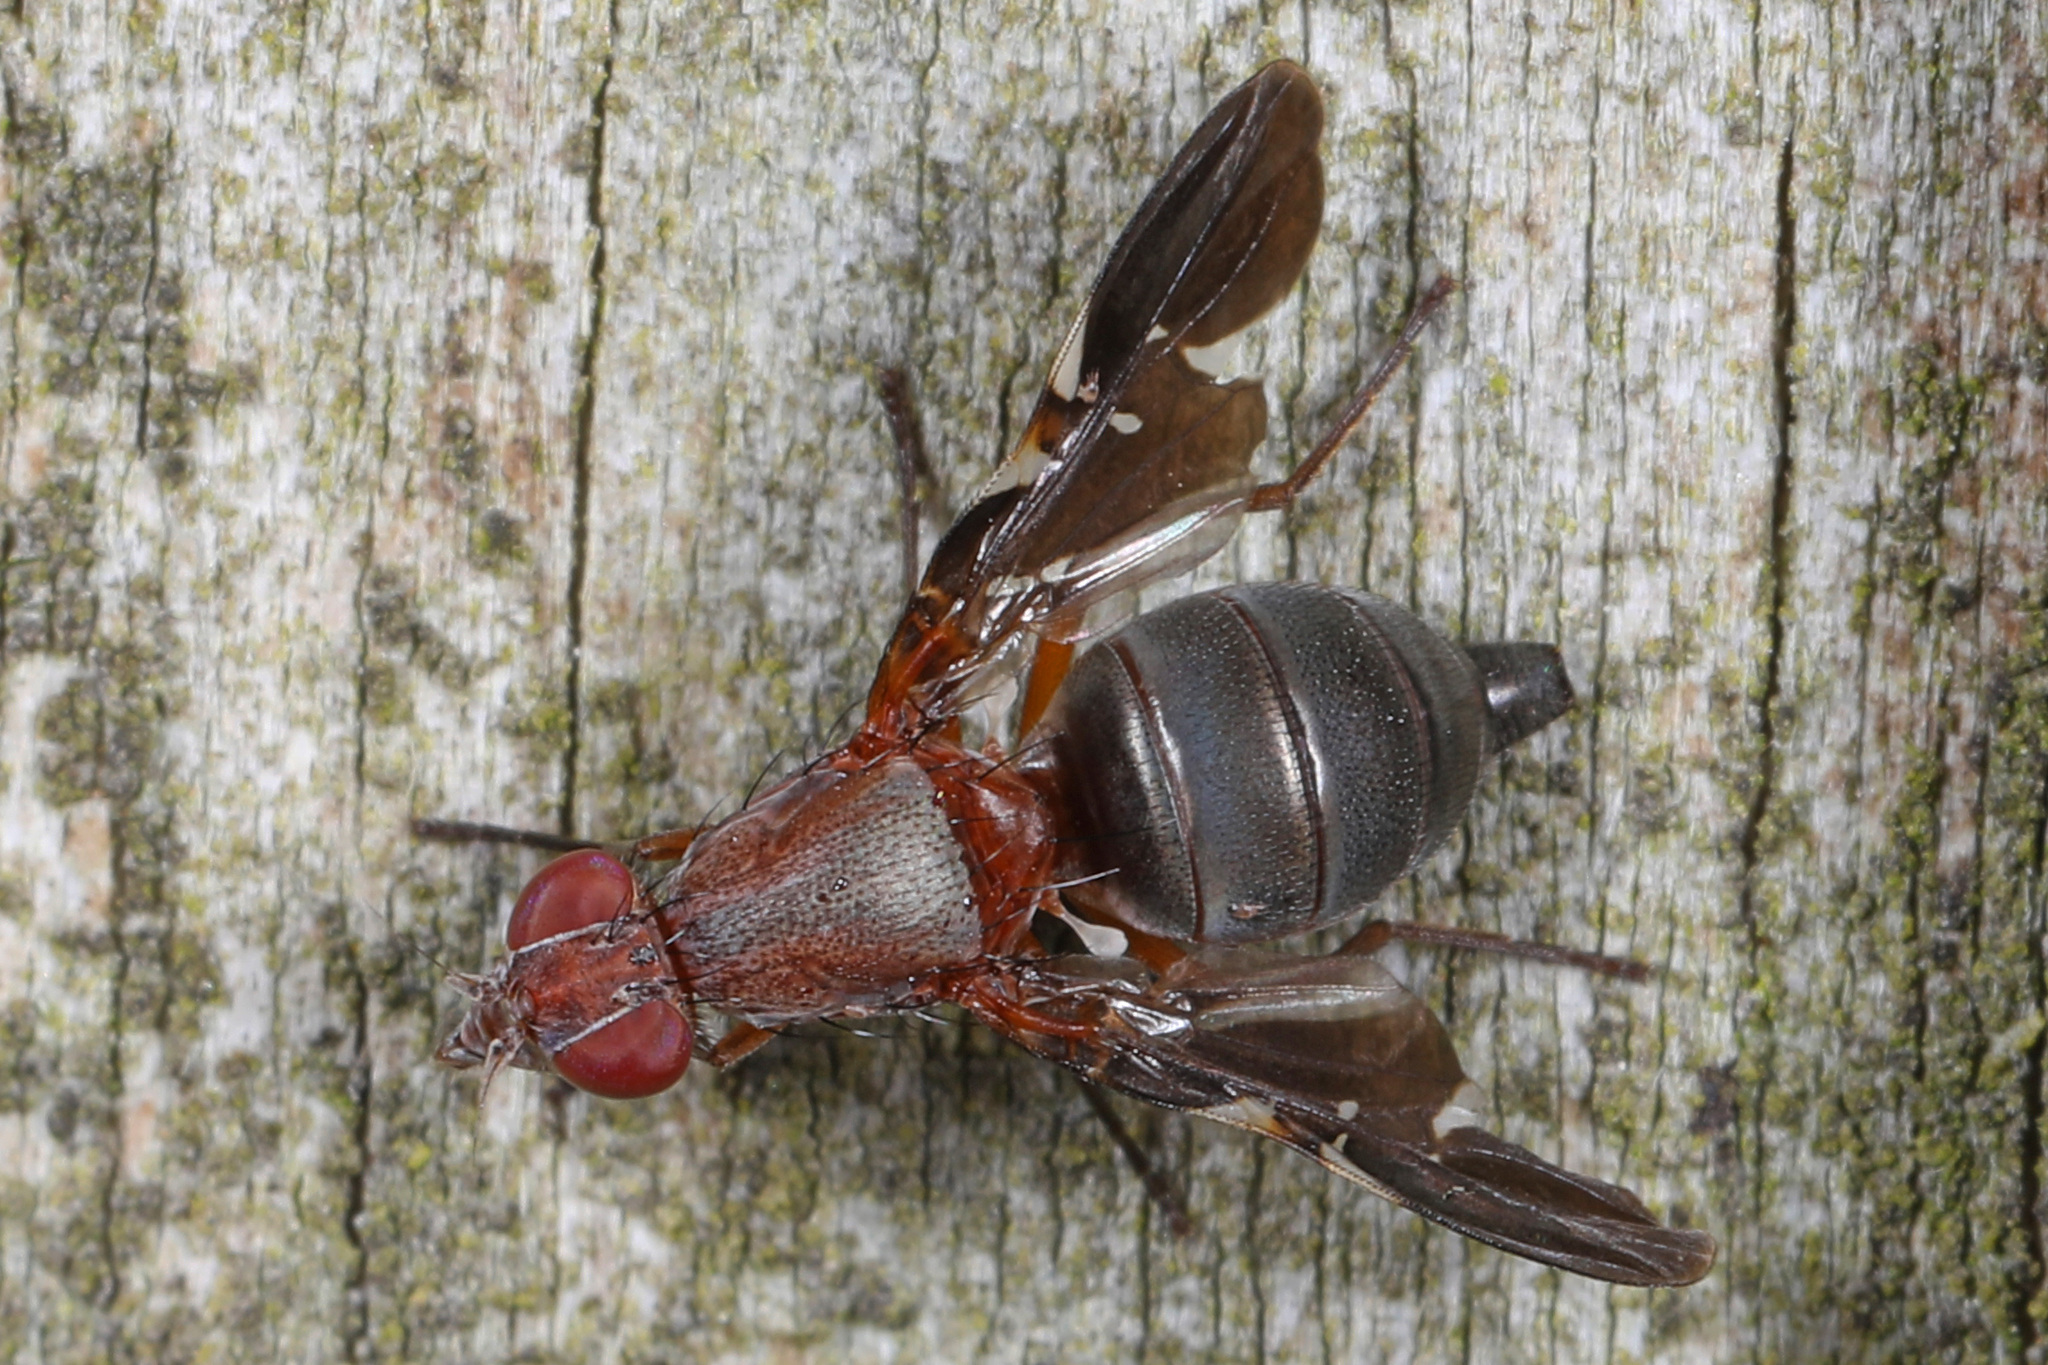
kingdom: Animalia
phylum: Arthropoda
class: Insecta
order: Diptera
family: Ulidiidae
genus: Delphinia
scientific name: Delphinia picta
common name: Common picture-winged fly
